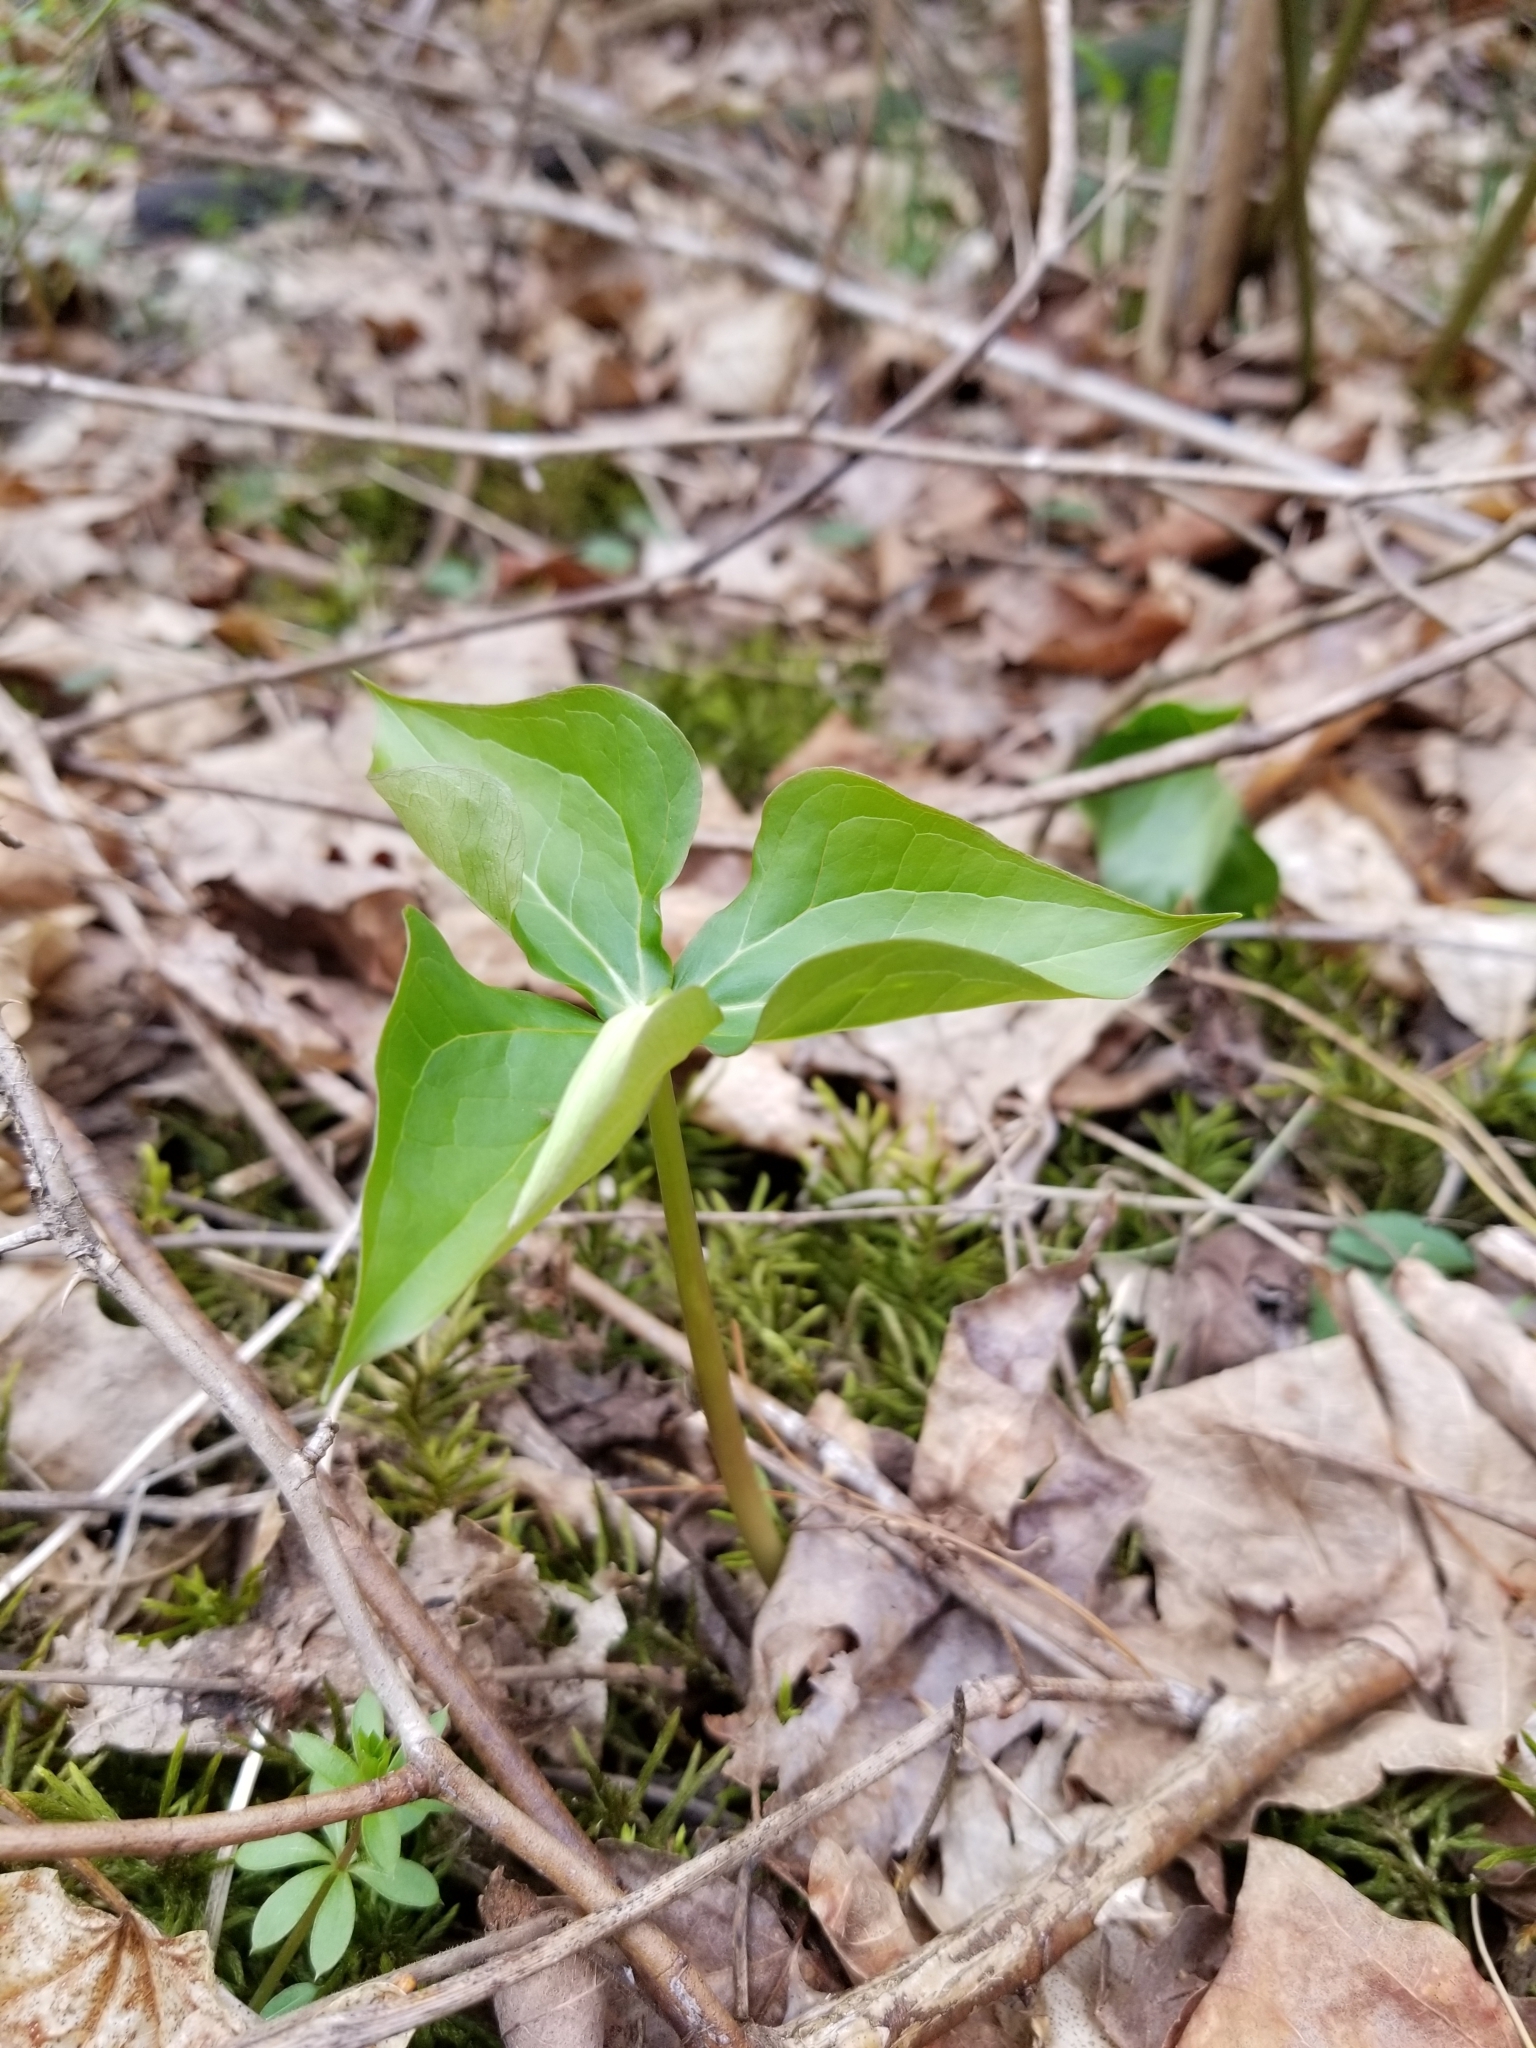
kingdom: Plantae
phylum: Tracheophyta
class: Liliopsida
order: Liliales
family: Melanthiaceae
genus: Trillium
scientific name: Trillium erectum
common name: Purple trillium
